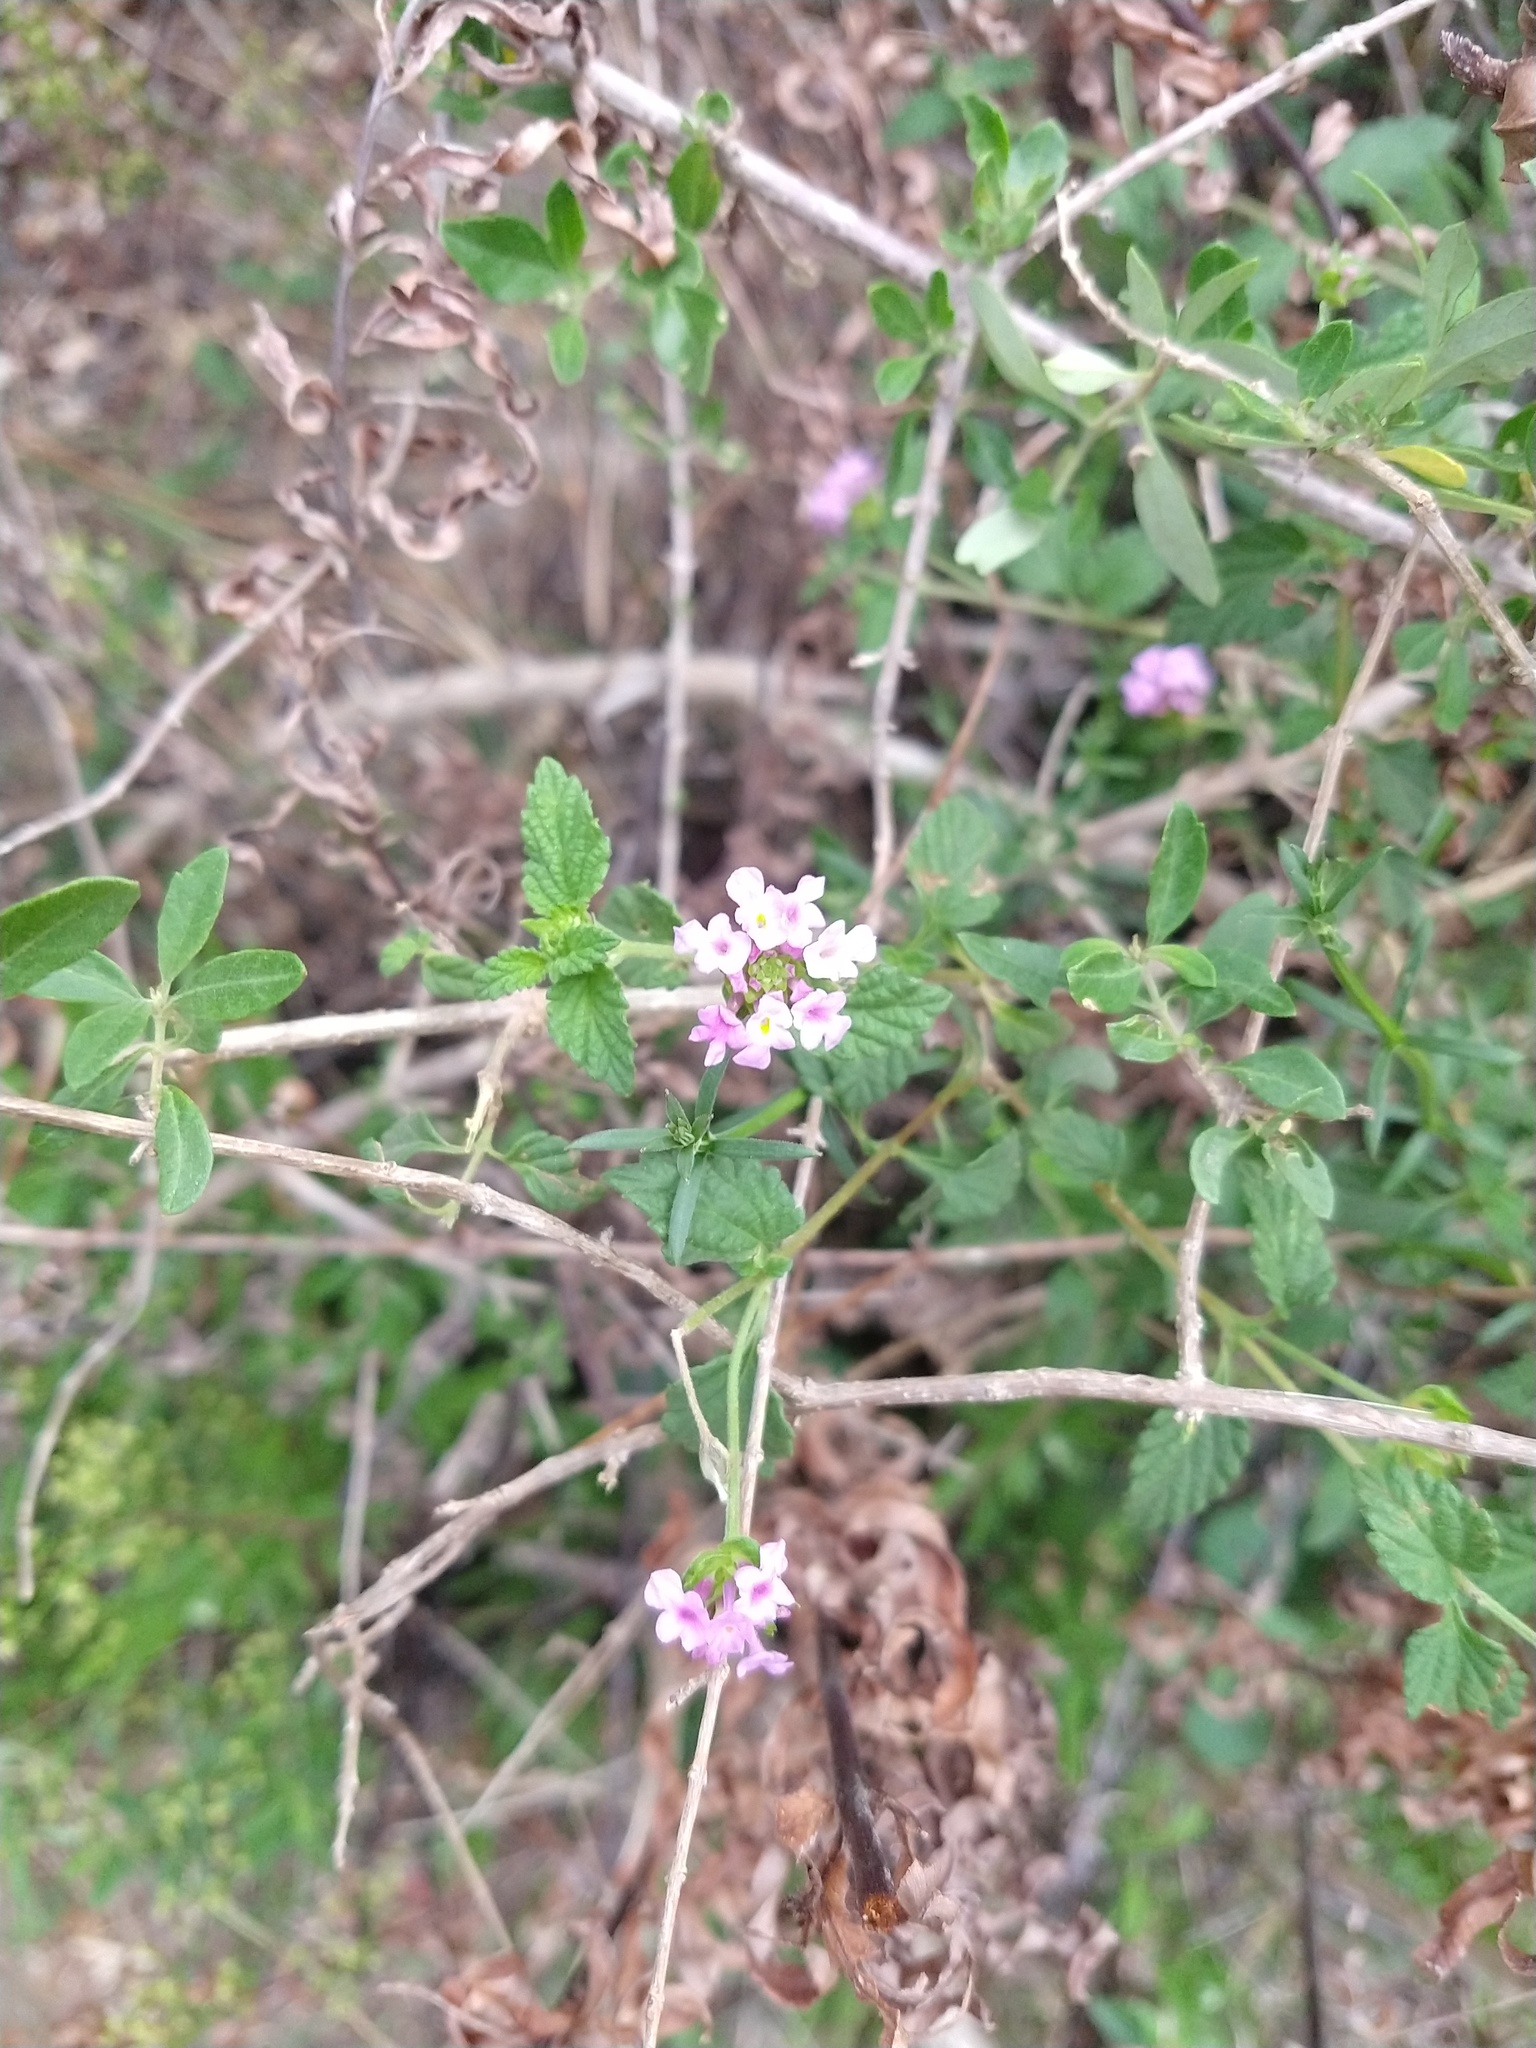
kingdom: Plantae
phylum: Tracheophyta
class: Magnoliopsida
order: Lamiales
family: Verbenaceae
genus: Lantana
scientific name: Lantana megapotamica
